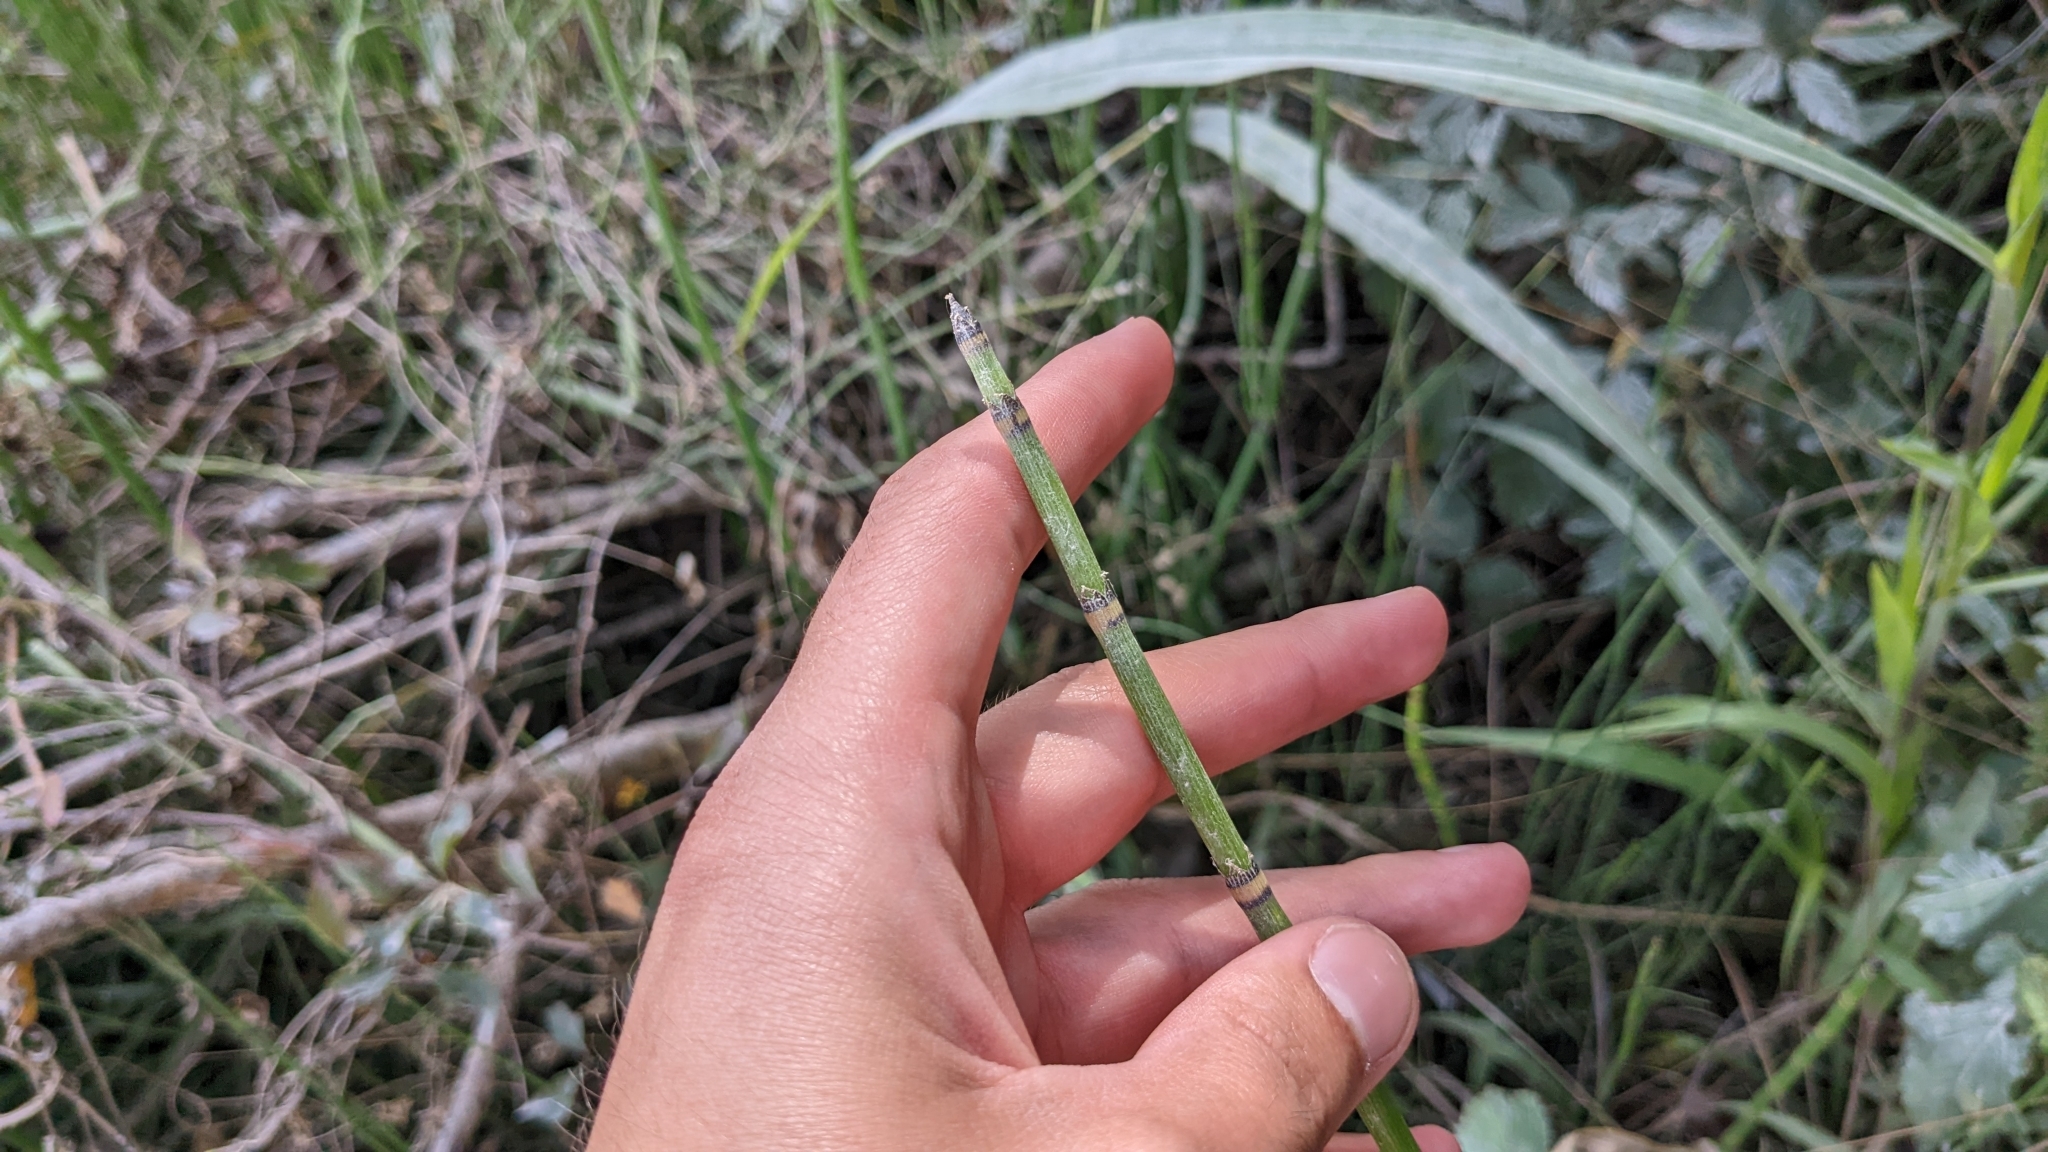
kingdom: Plantae
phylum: Tracheophyta
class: Polypodiopsida
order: Equisetales
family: Equisetaceae
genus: Equisetum
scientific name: Equisetum hyemale
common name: Rough horsetail
